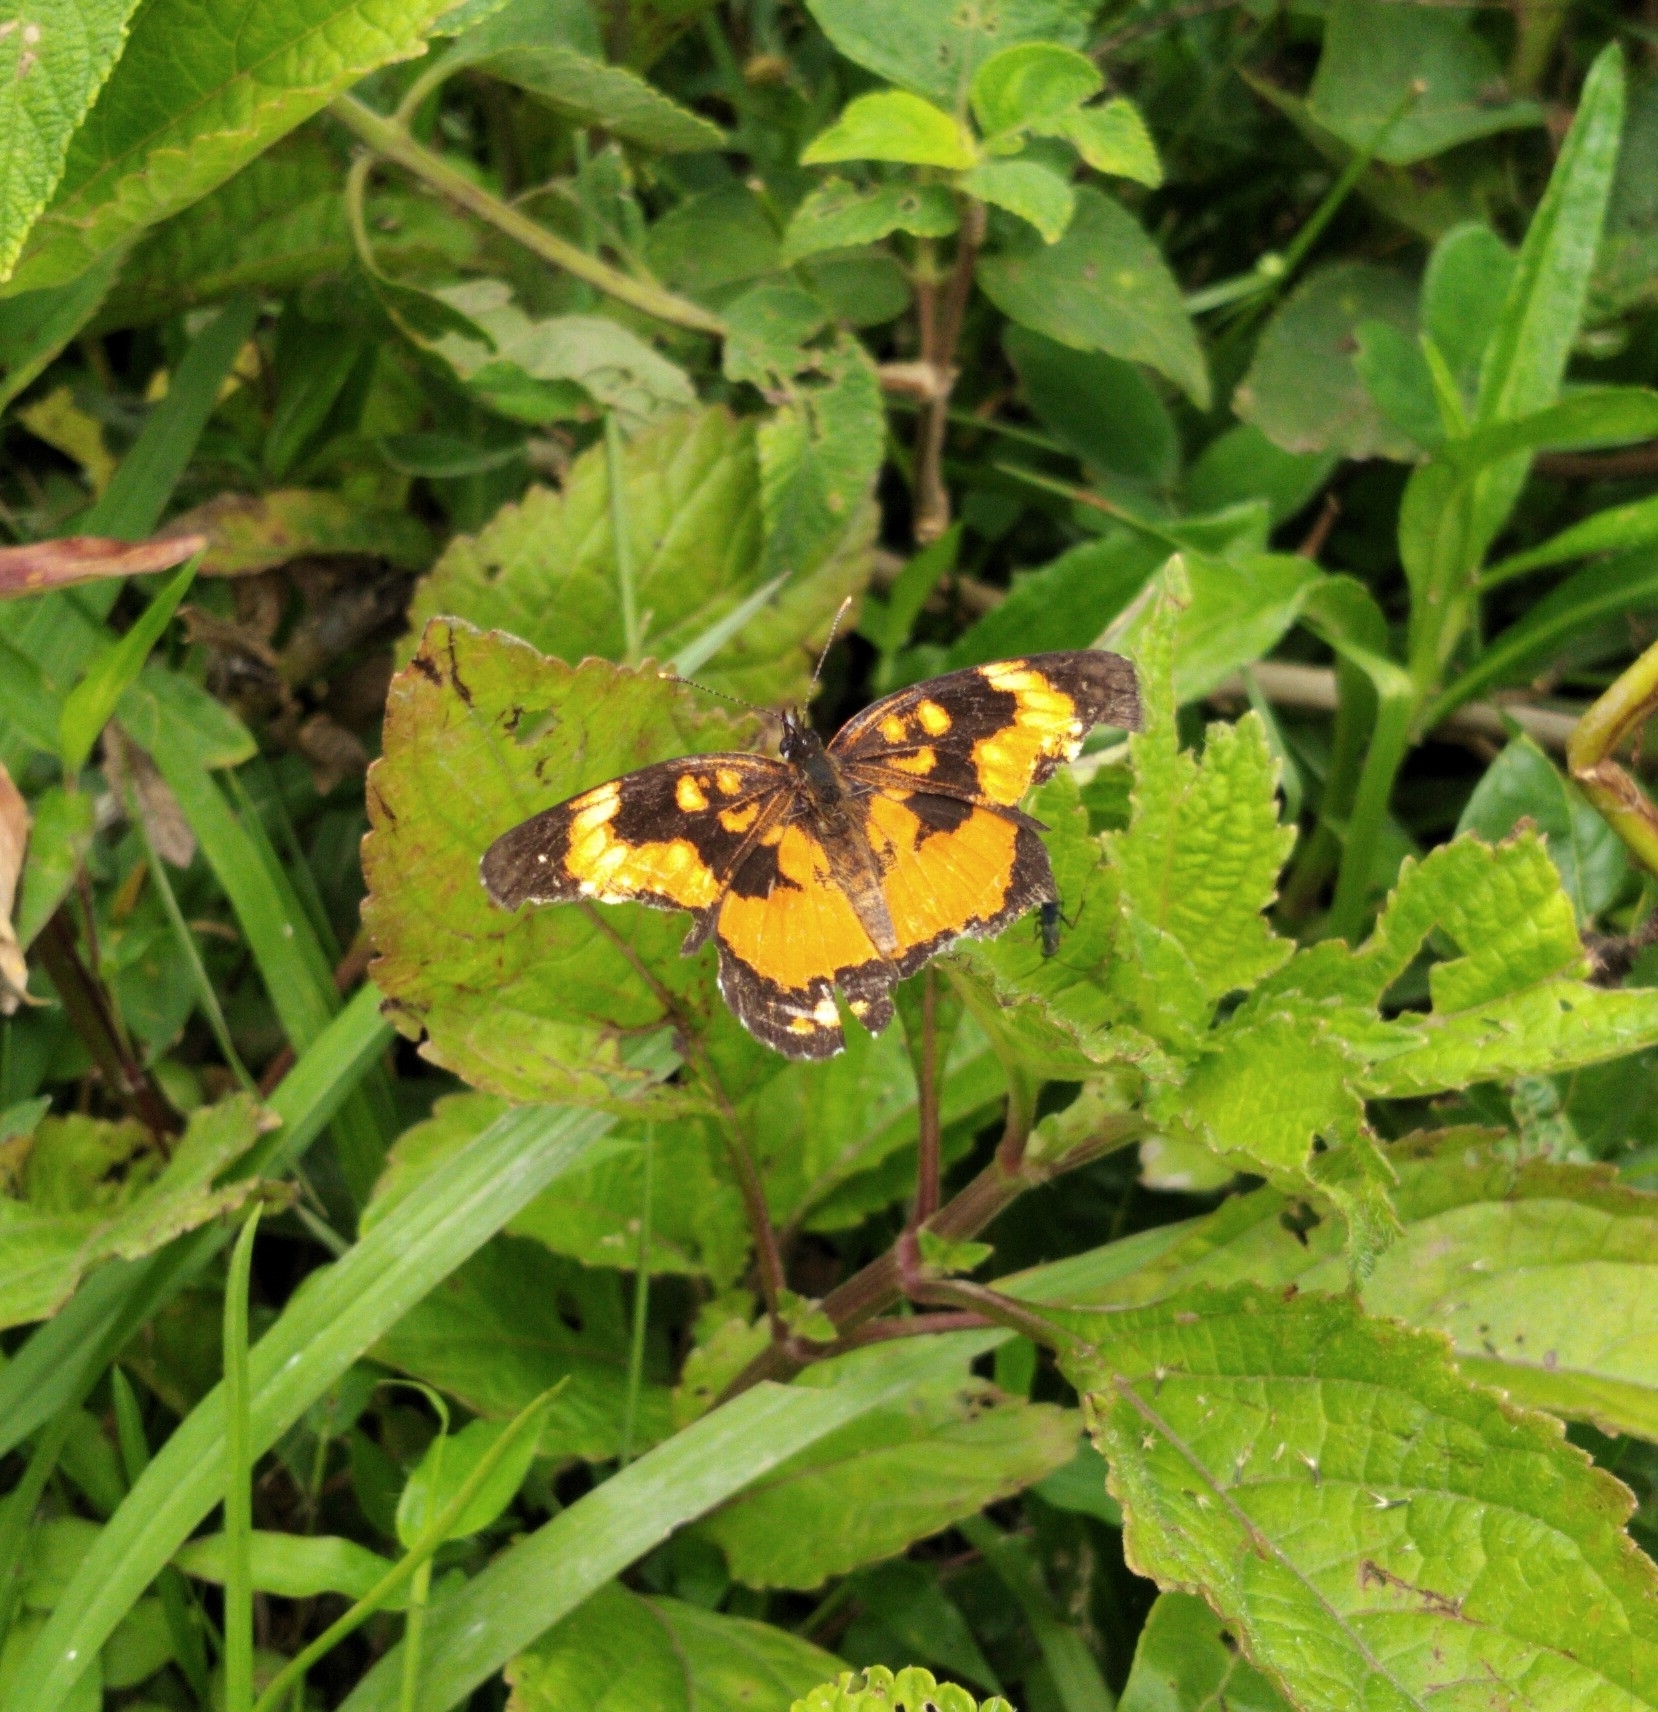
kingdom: Animalia
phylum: Arthropoda
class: Insecta
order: Lepidoptera
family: Nymphalidae
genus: Chlosyne
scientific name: Chlosyne lacinia
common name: Bordered patch
